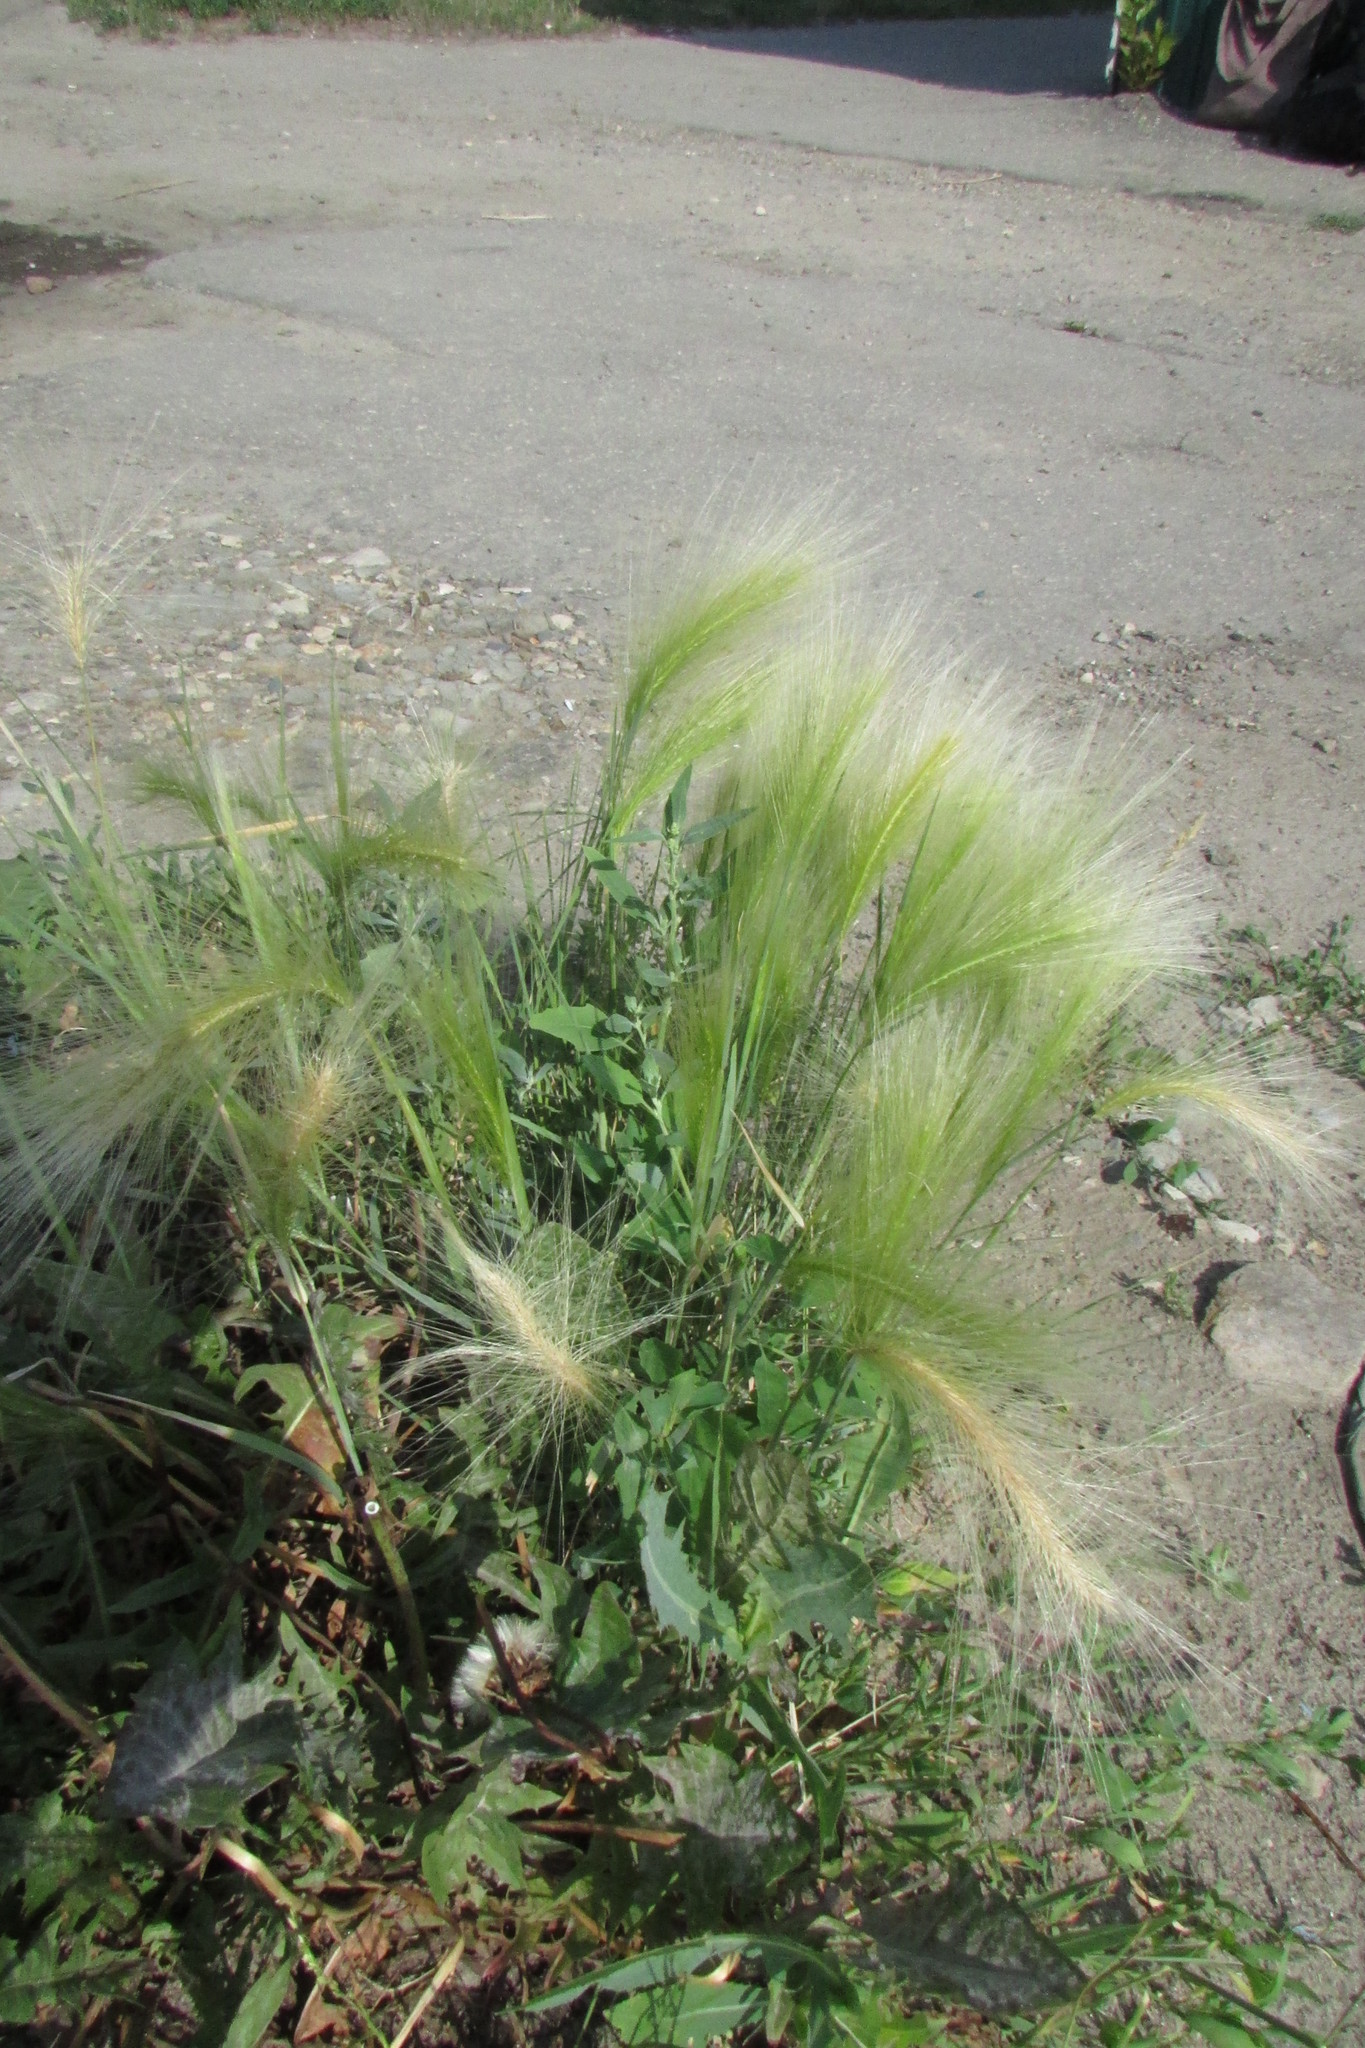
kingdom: Plantae
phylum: Tracheophyta
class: Liliopsida
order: Poales
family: Poaceae
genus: Hordeum
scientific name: Hordeum jubatum
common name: Foxtail barley
